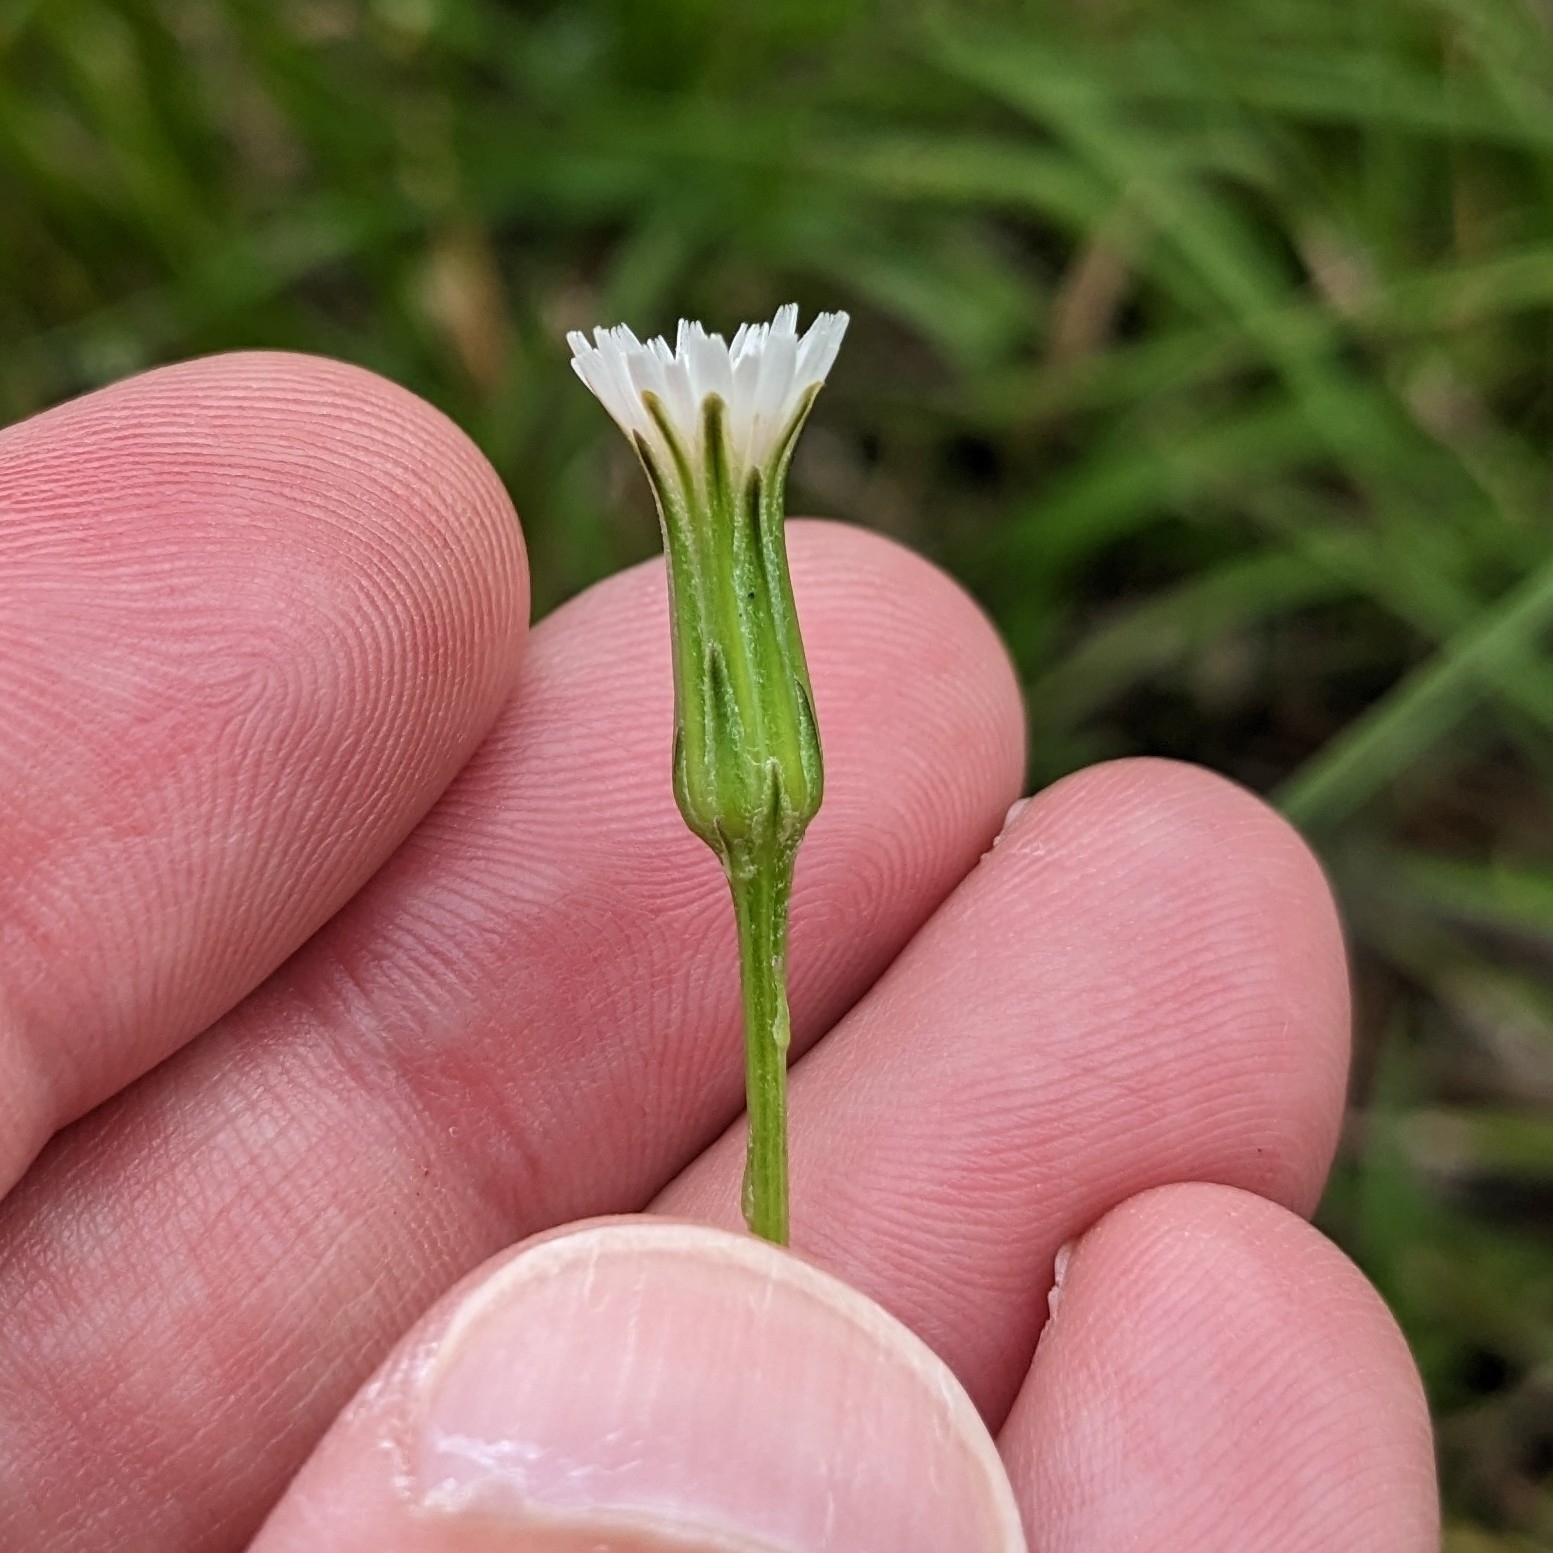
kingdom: Plantae
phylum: Tracheophyta
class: Magnoliopsida
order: Asterales
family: Asteraceae
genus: Hypochaeris
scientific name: Hypochaeris albiflora
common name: White flatweed
